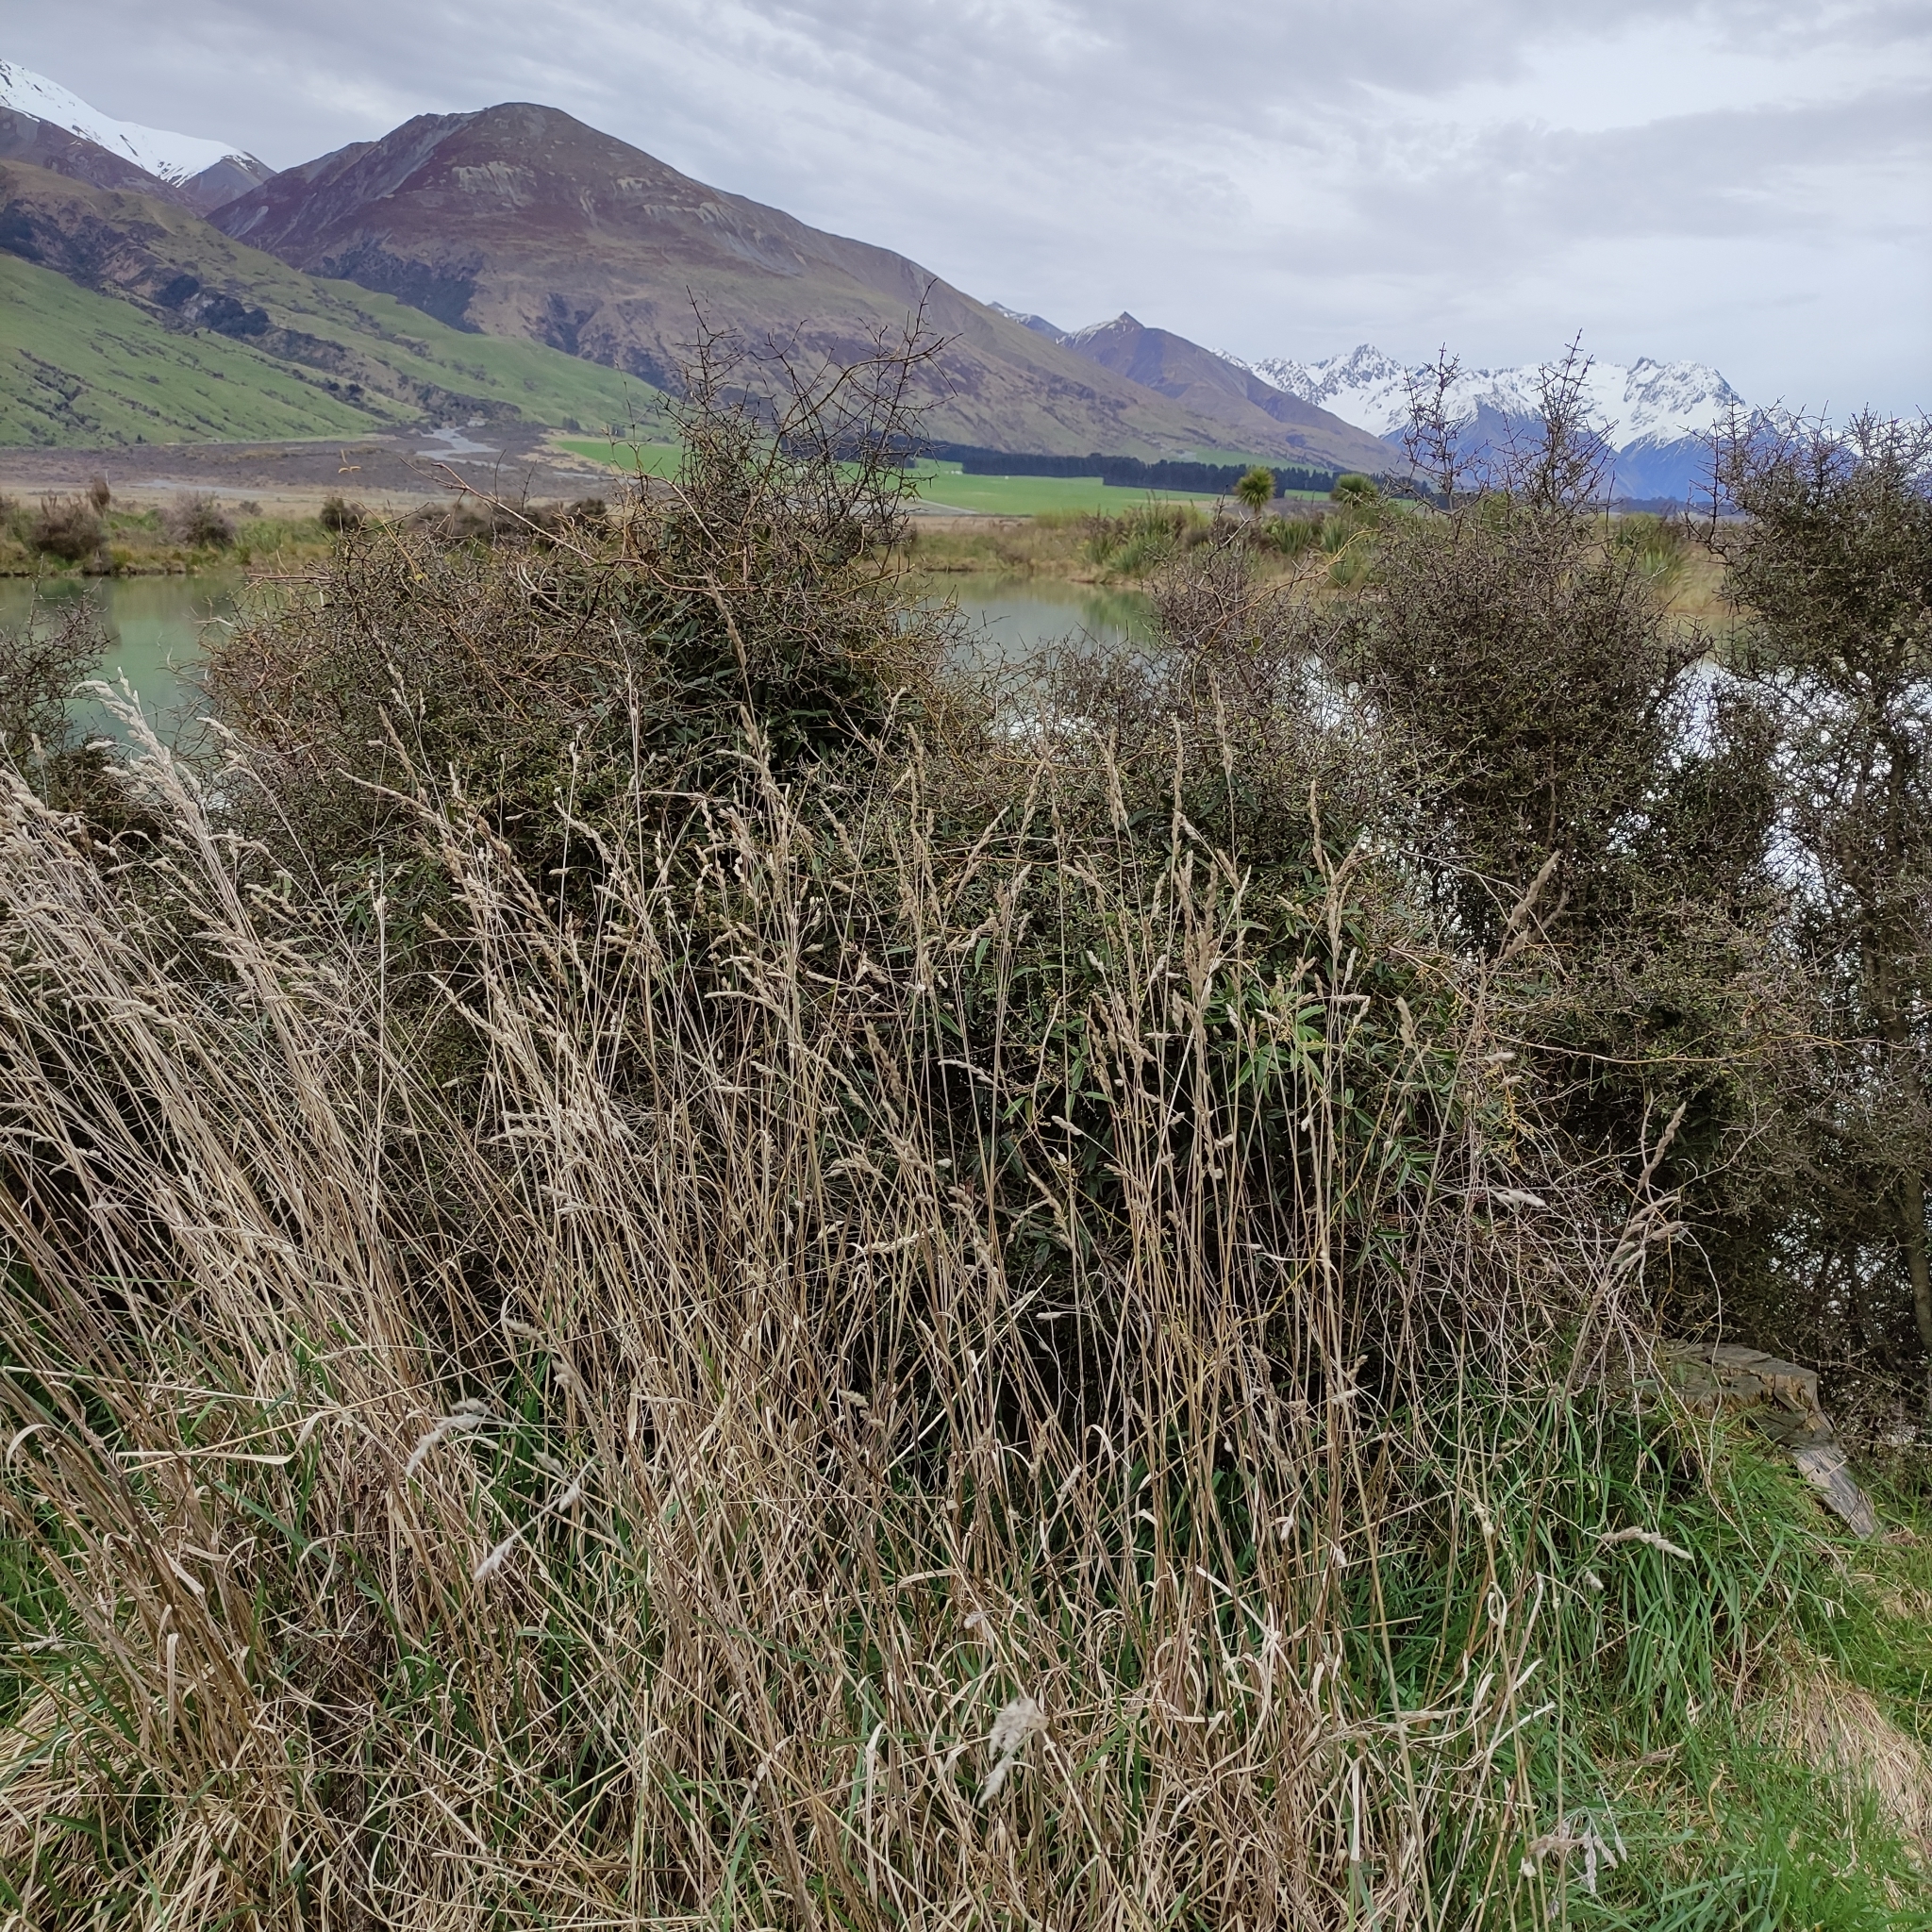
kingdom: Plantae
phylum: Tracheophyta
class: Liliopsida
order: Poales
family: Poaceae
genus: Dactylis
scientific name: Dactylis glomerata
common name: Orchardgrass
